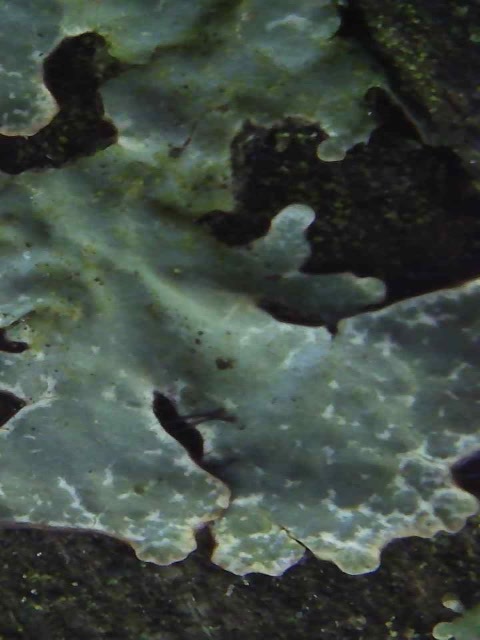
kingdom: Fungi
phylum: Ascomycota
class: Lecanoromycetes
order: Lecanorales
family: Parmeliaceae
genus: Parmelia
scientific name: Parmelia sulcata
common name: Netted shield lichen
